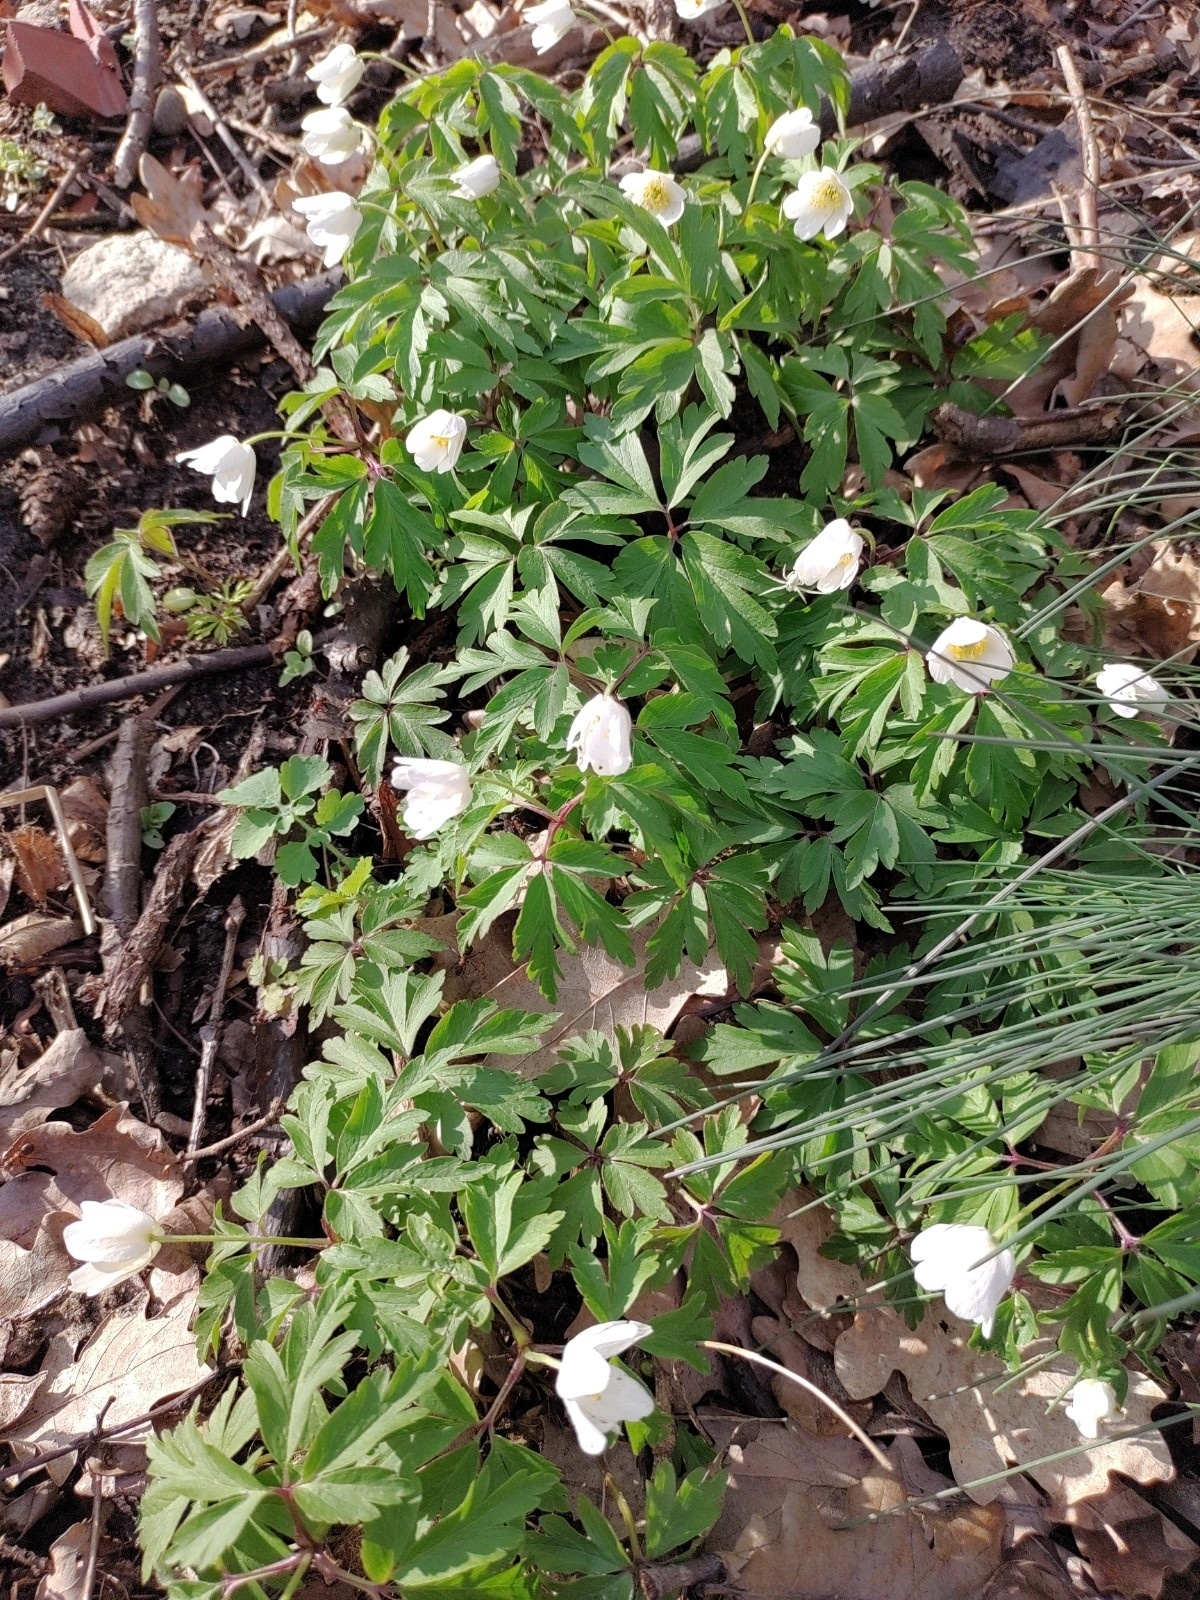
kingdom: Plantae
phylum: Tracheophyta
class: Magnoliopsida
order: Ranunculales
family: Ranunculaceae
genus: Anemone
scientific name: Anemone nemorosa
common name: Wood anemone
